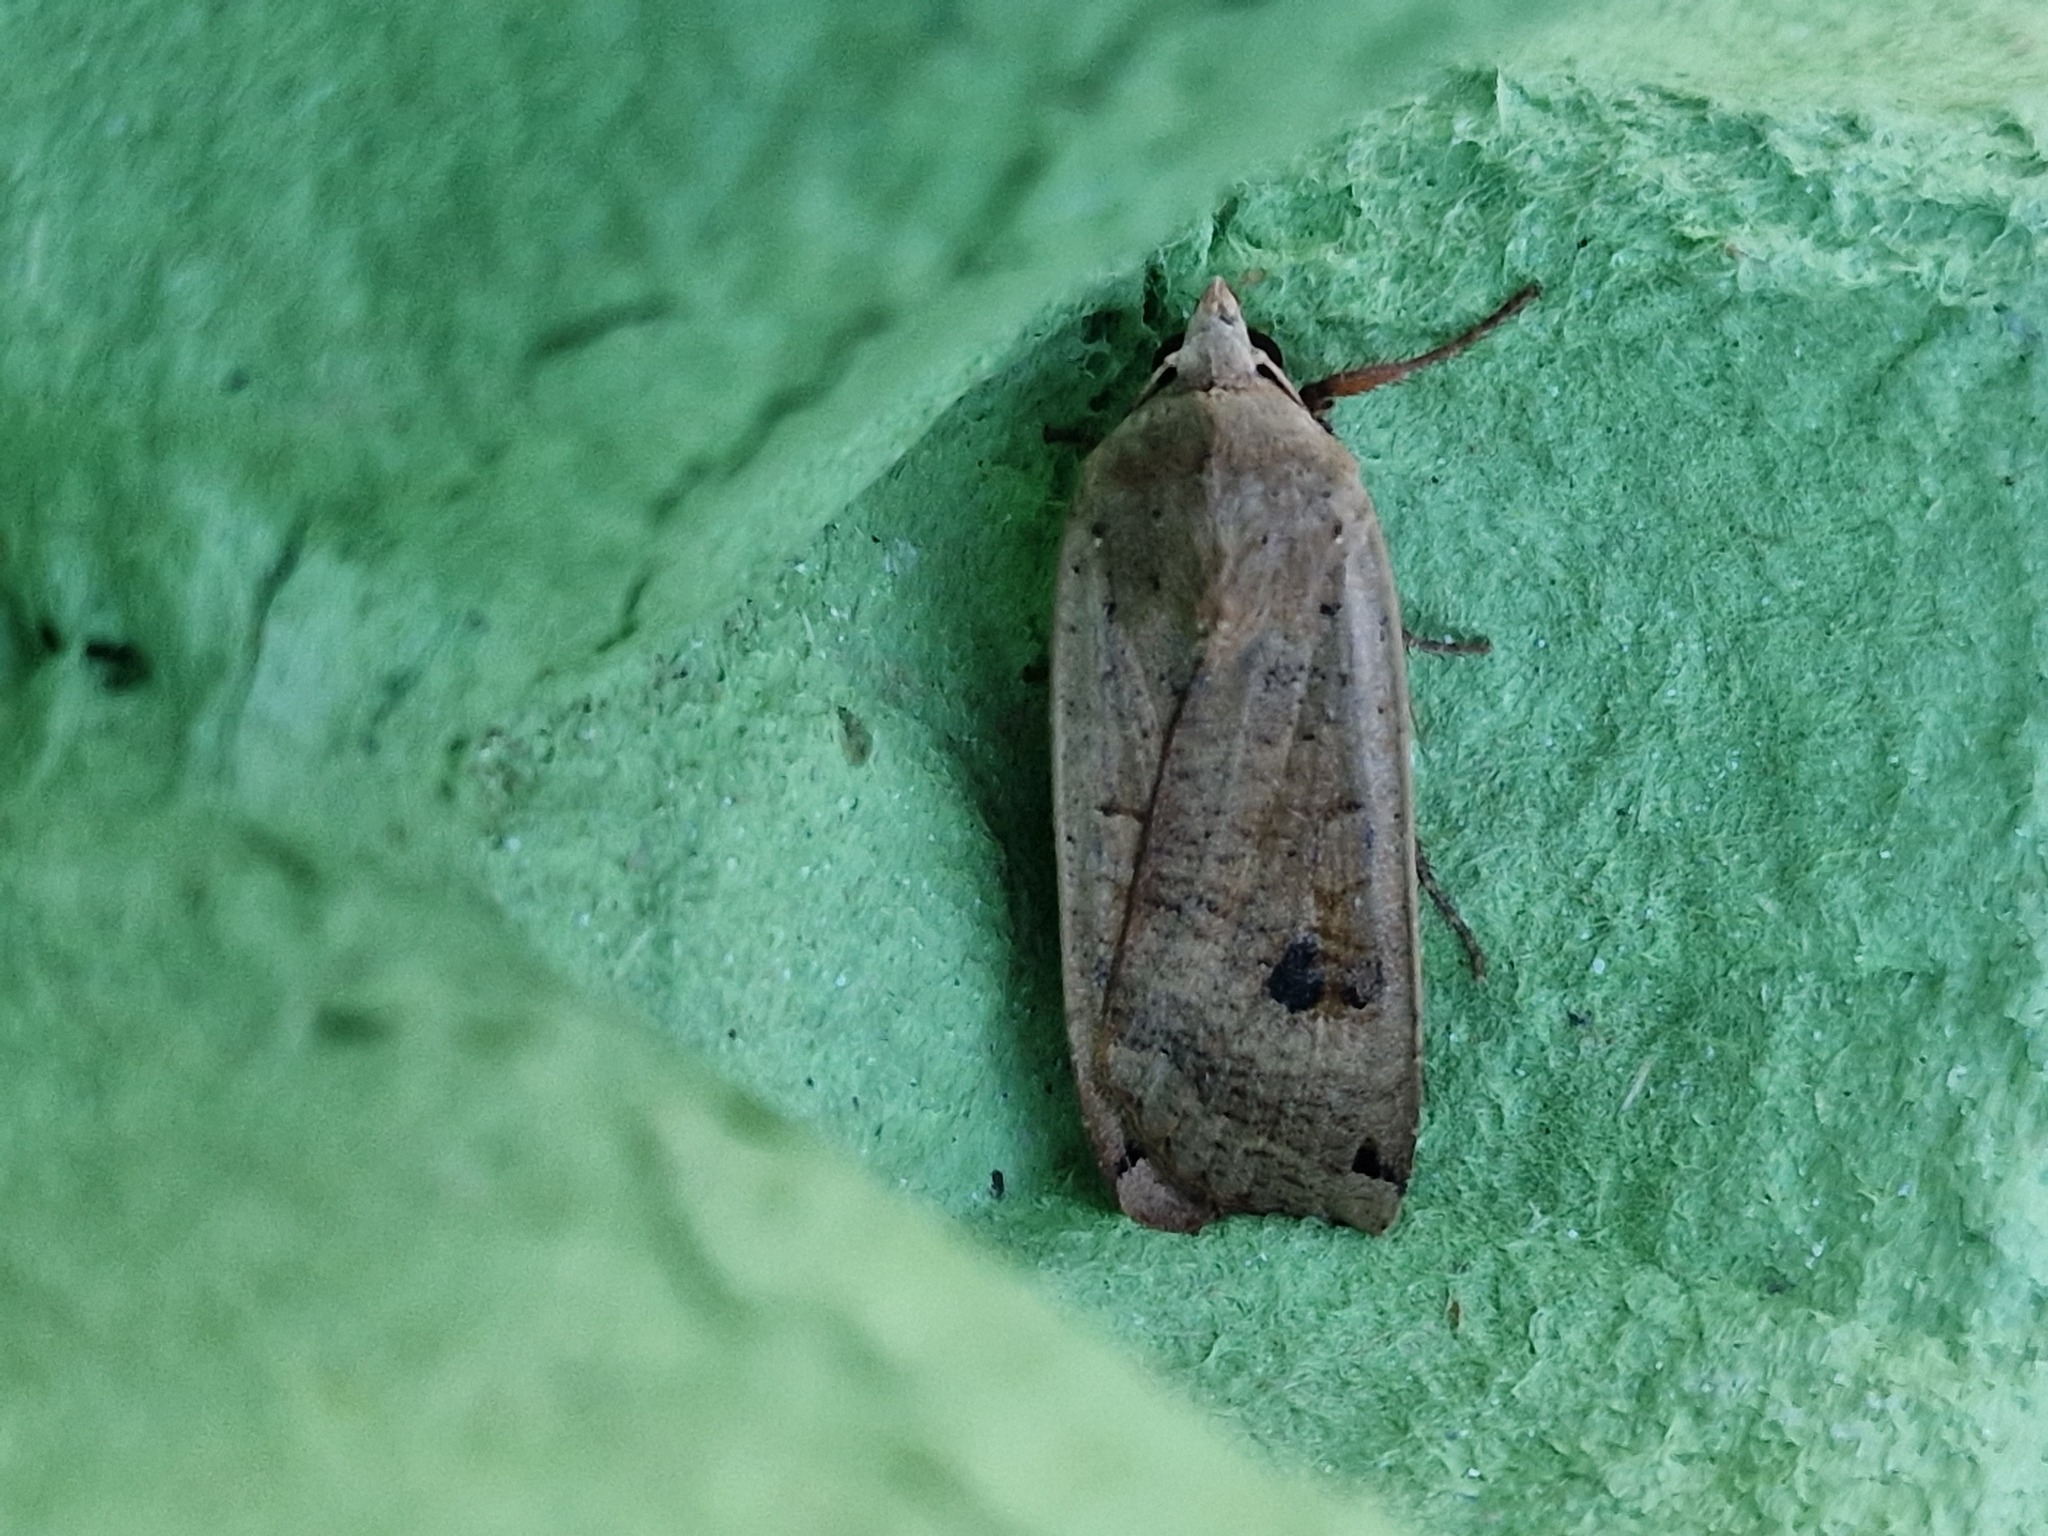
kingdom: Animalia
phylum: Arthropoda
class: Insecta
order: Lepidoptera
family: Noctuidae
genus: Noctua
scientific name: Noctua pronuba
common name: Large yellow underwing
